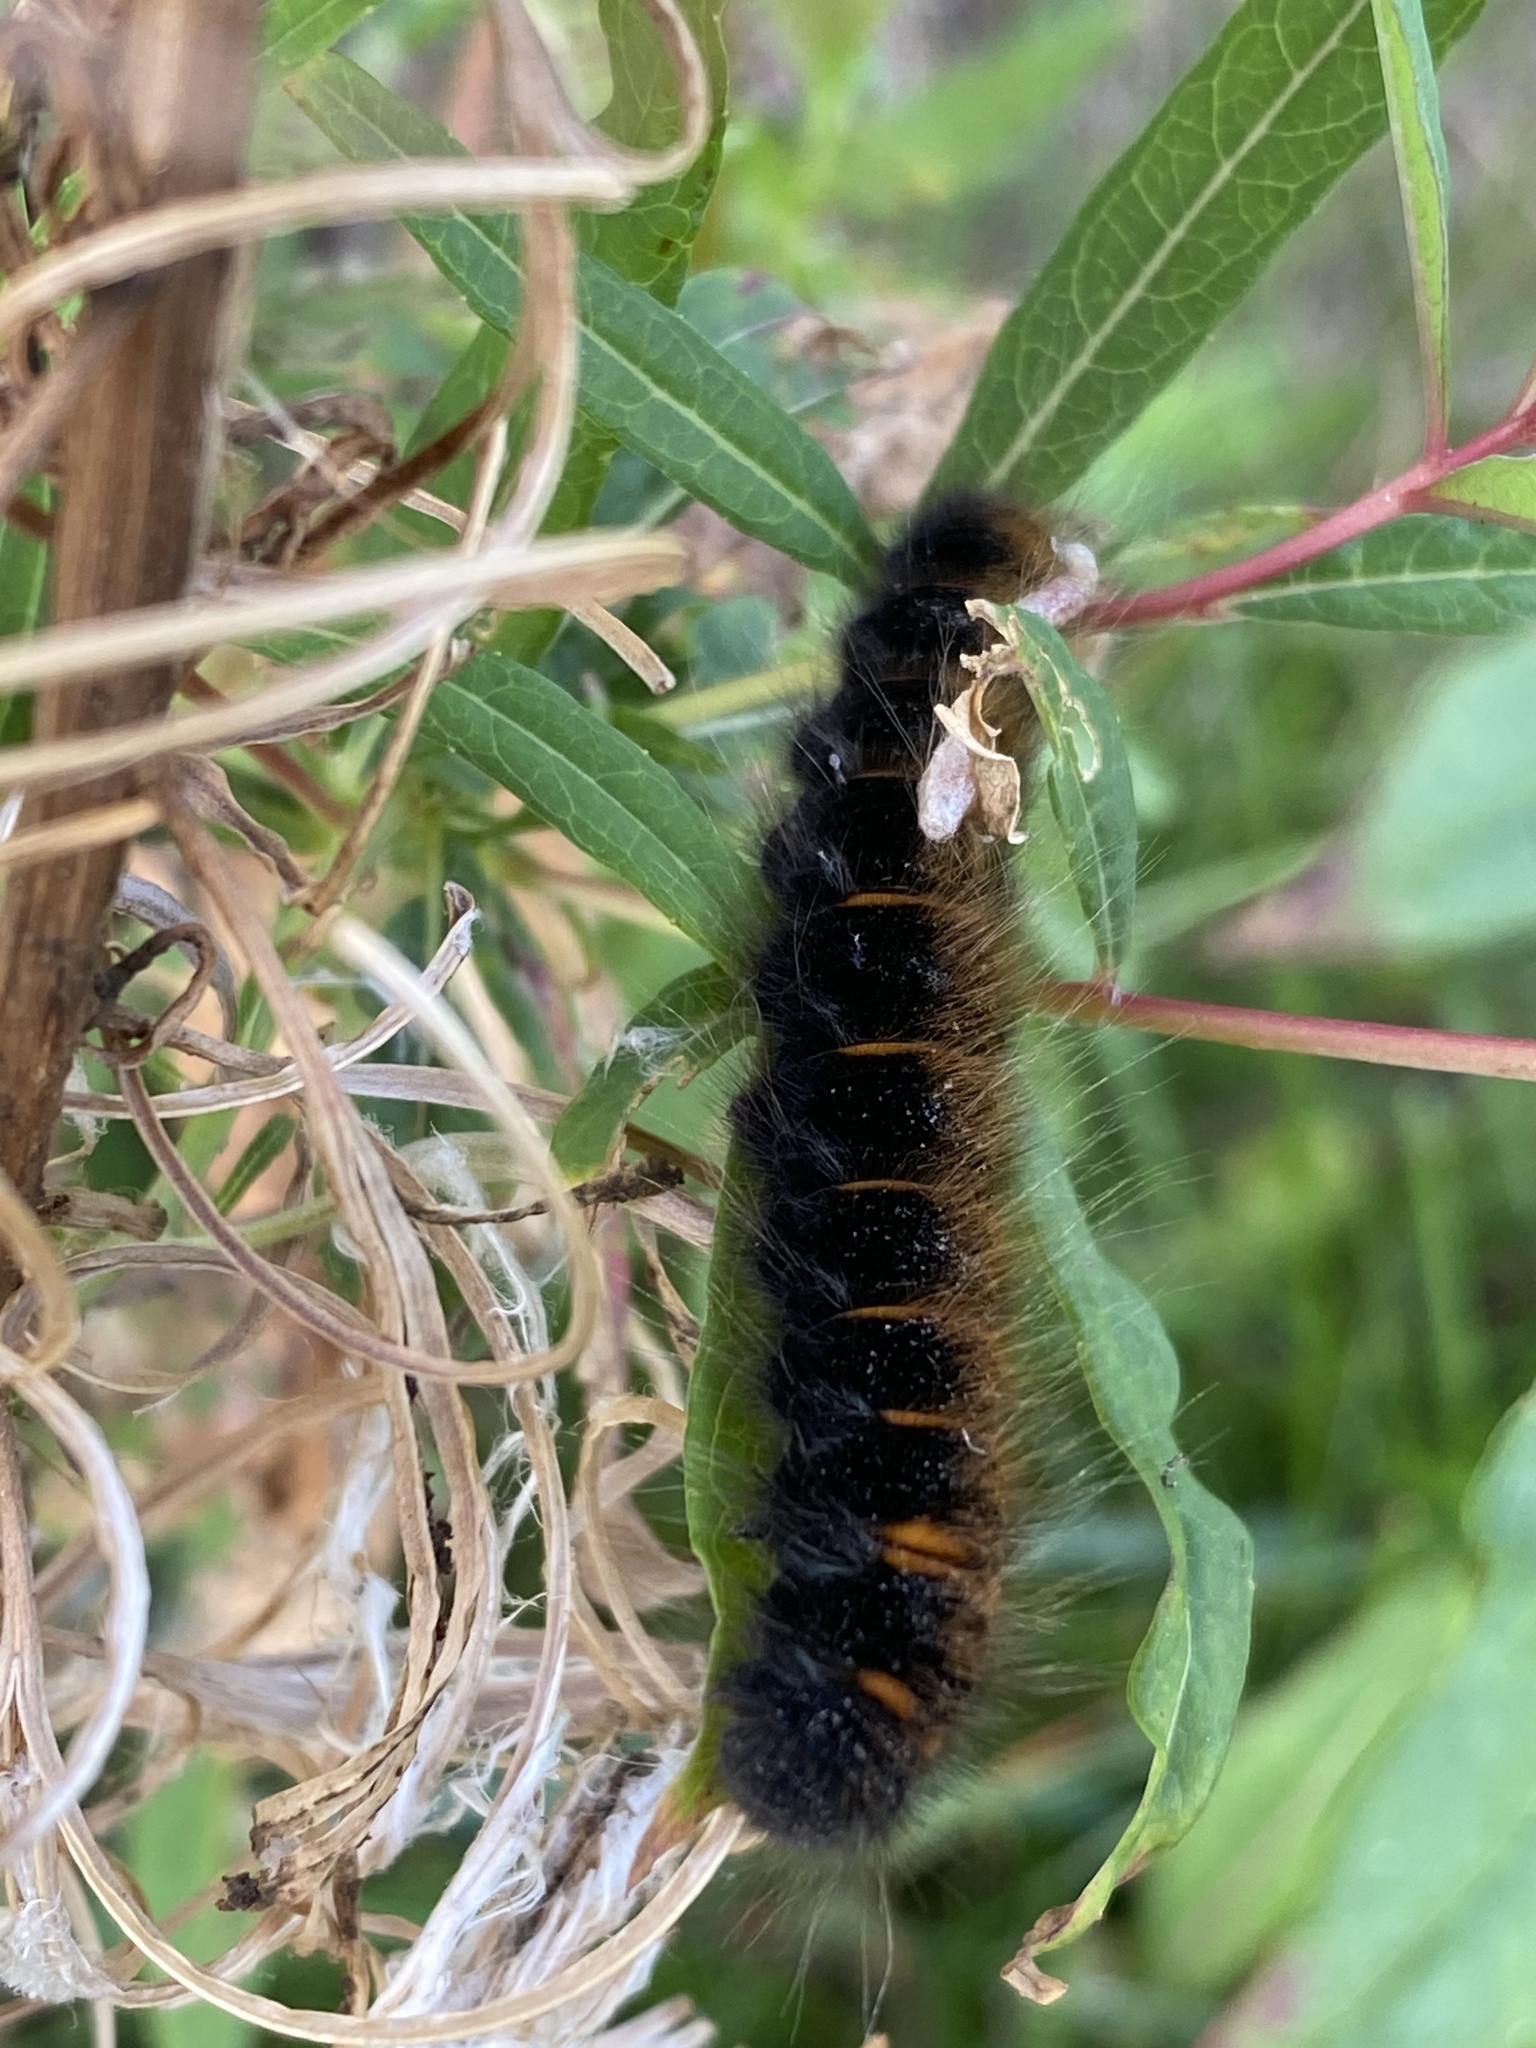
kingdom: Animalia
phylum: Arthropoda
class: Insecta
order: Lepidoptera
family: Lasiocampidae
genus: Macrothylacia
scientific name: Macrothylacia rubi
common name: Fox moth
